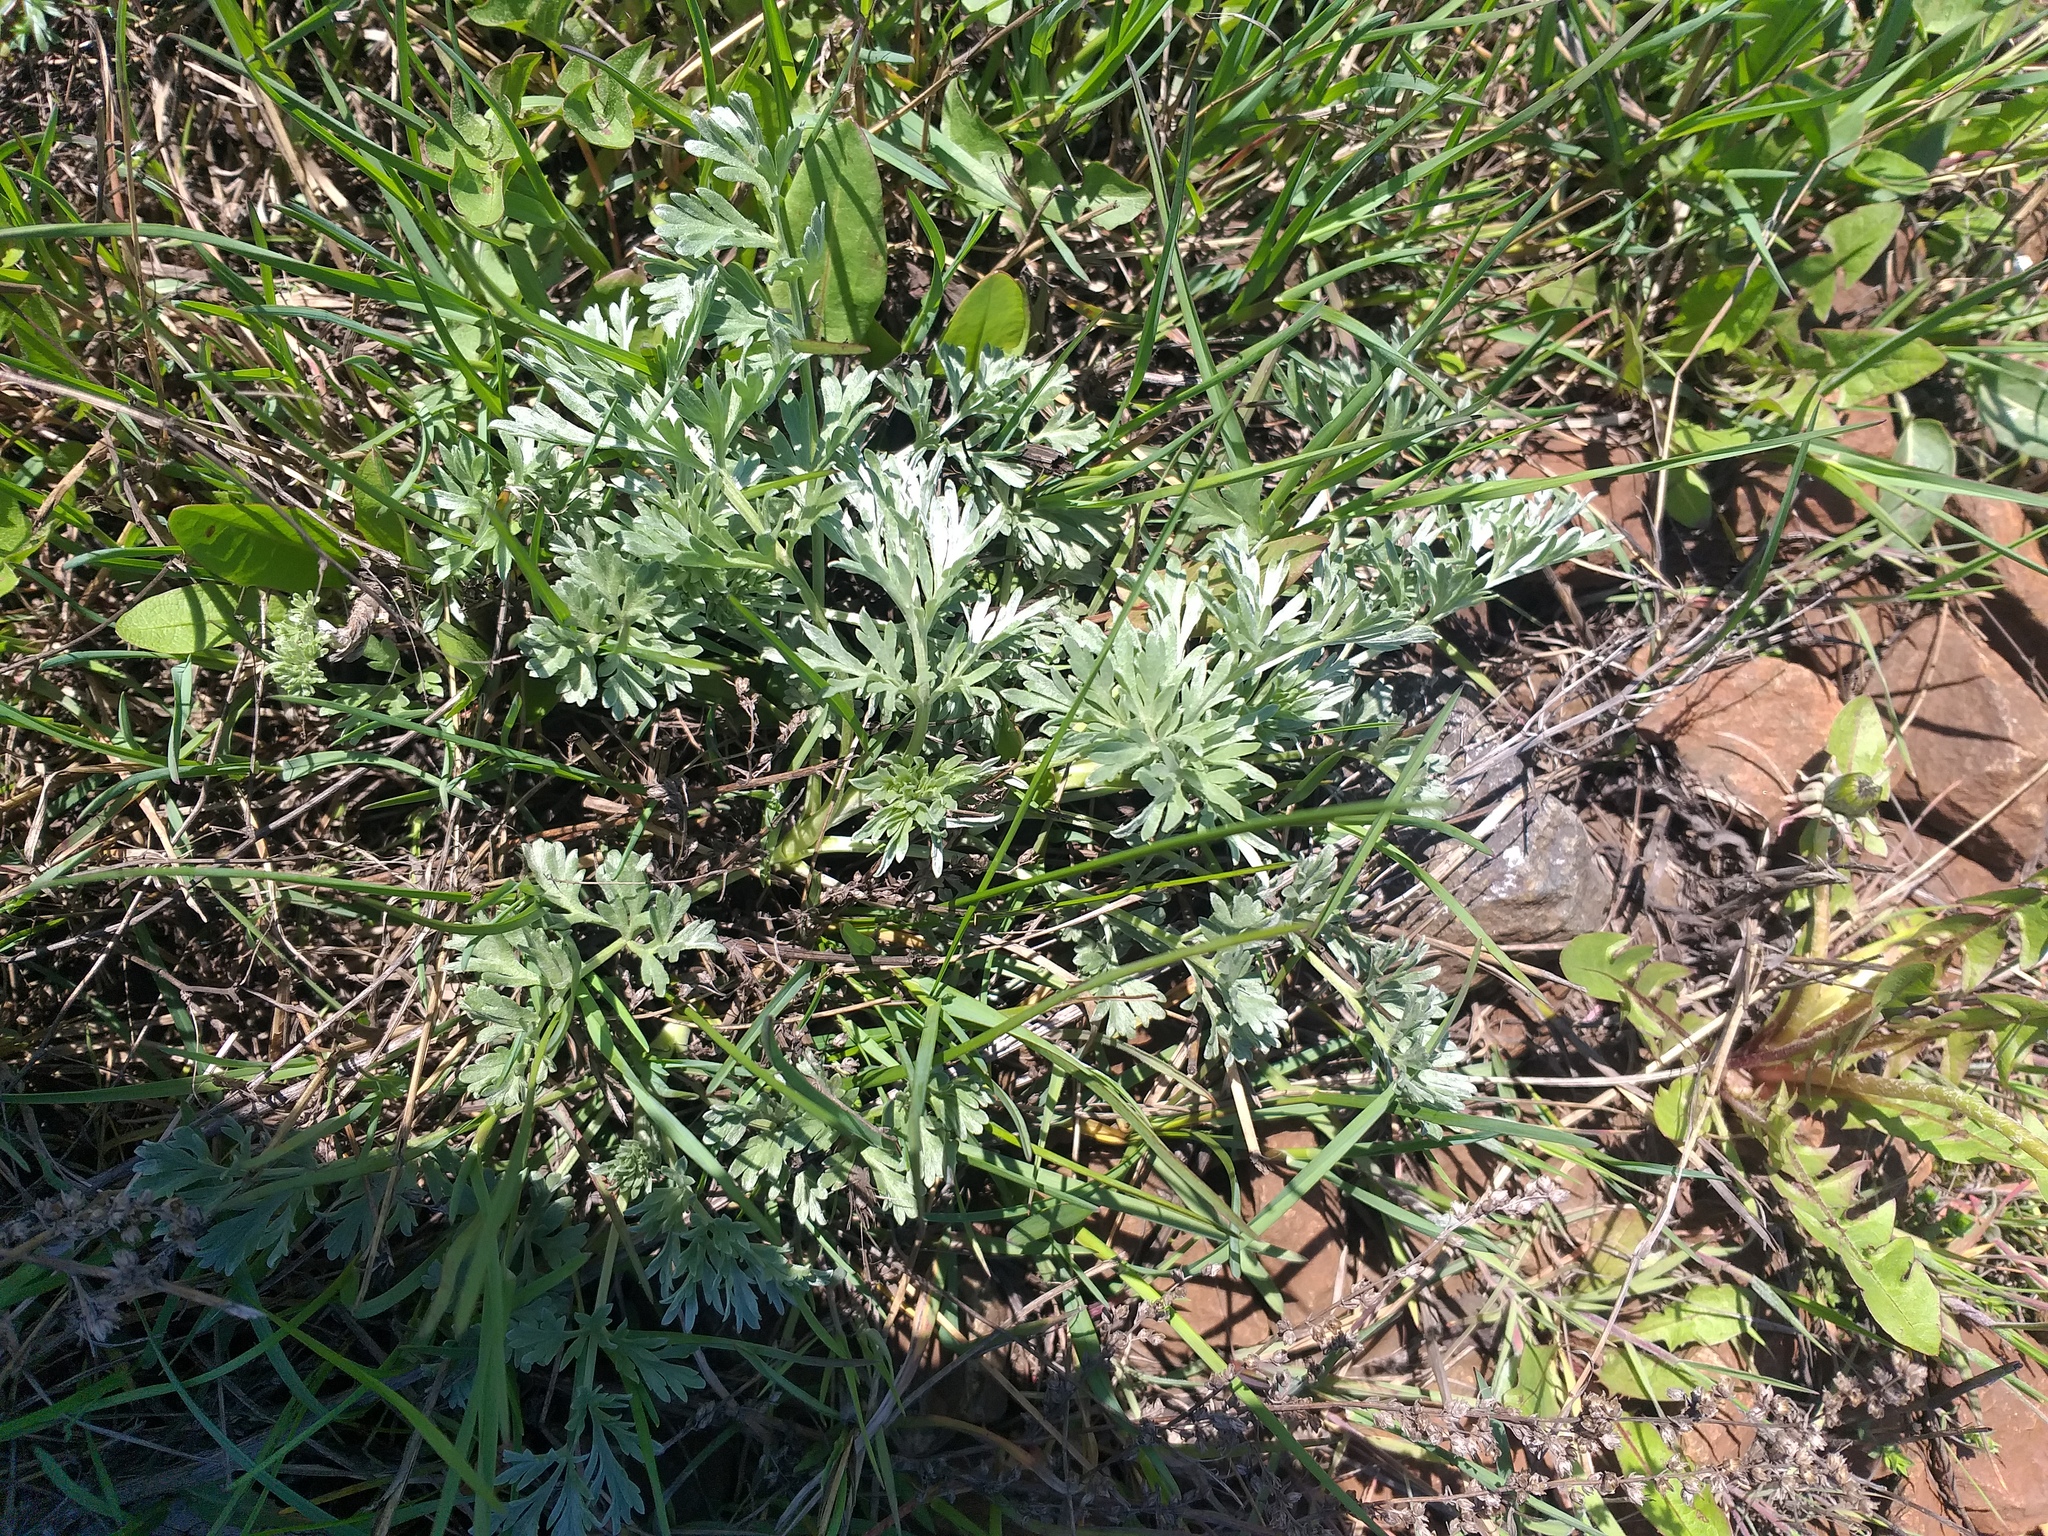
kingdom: Plantae
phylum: Tracheophyta
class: Magnoliopsida
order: Asterales
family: Asteraceae
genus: Artemisia
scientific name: Artemisia absinthium
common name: Wormwood
